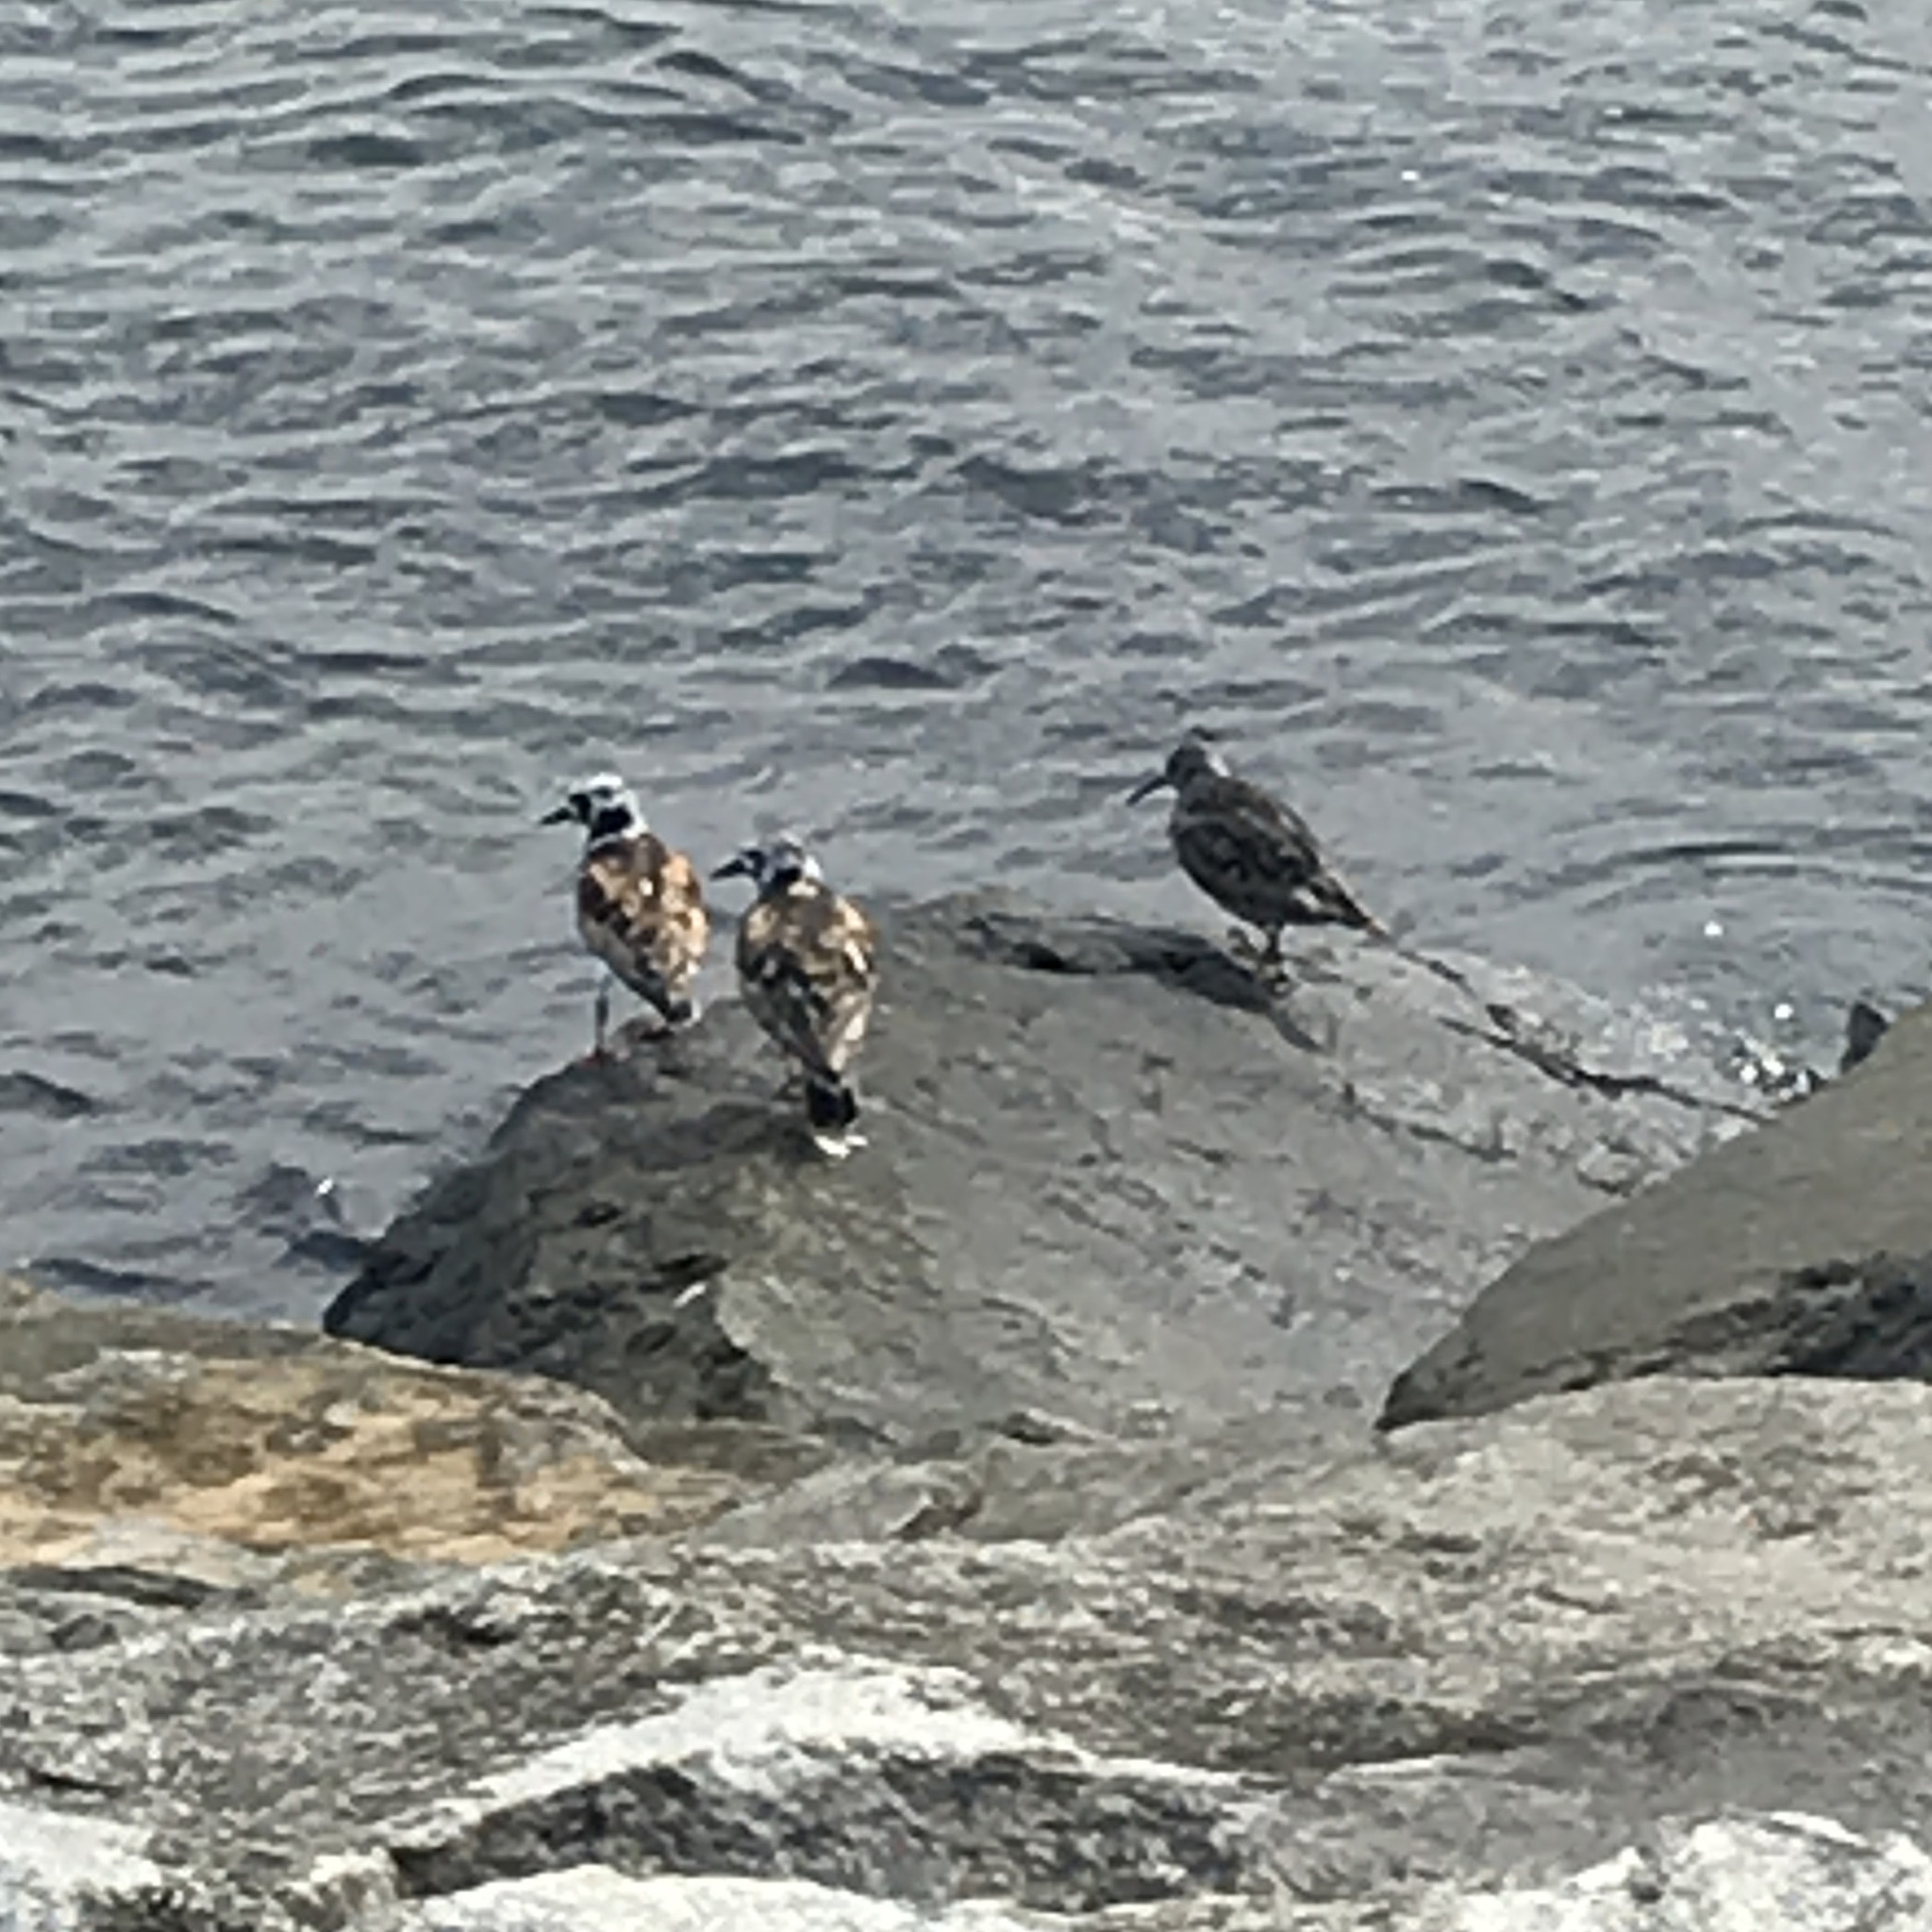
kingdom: Animalia
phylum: Chordata
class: Aves
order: Charadriiformes
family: Scolopacidae
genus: Arenaria
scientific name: Arenaria interpres
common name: Ruddy turnstone
